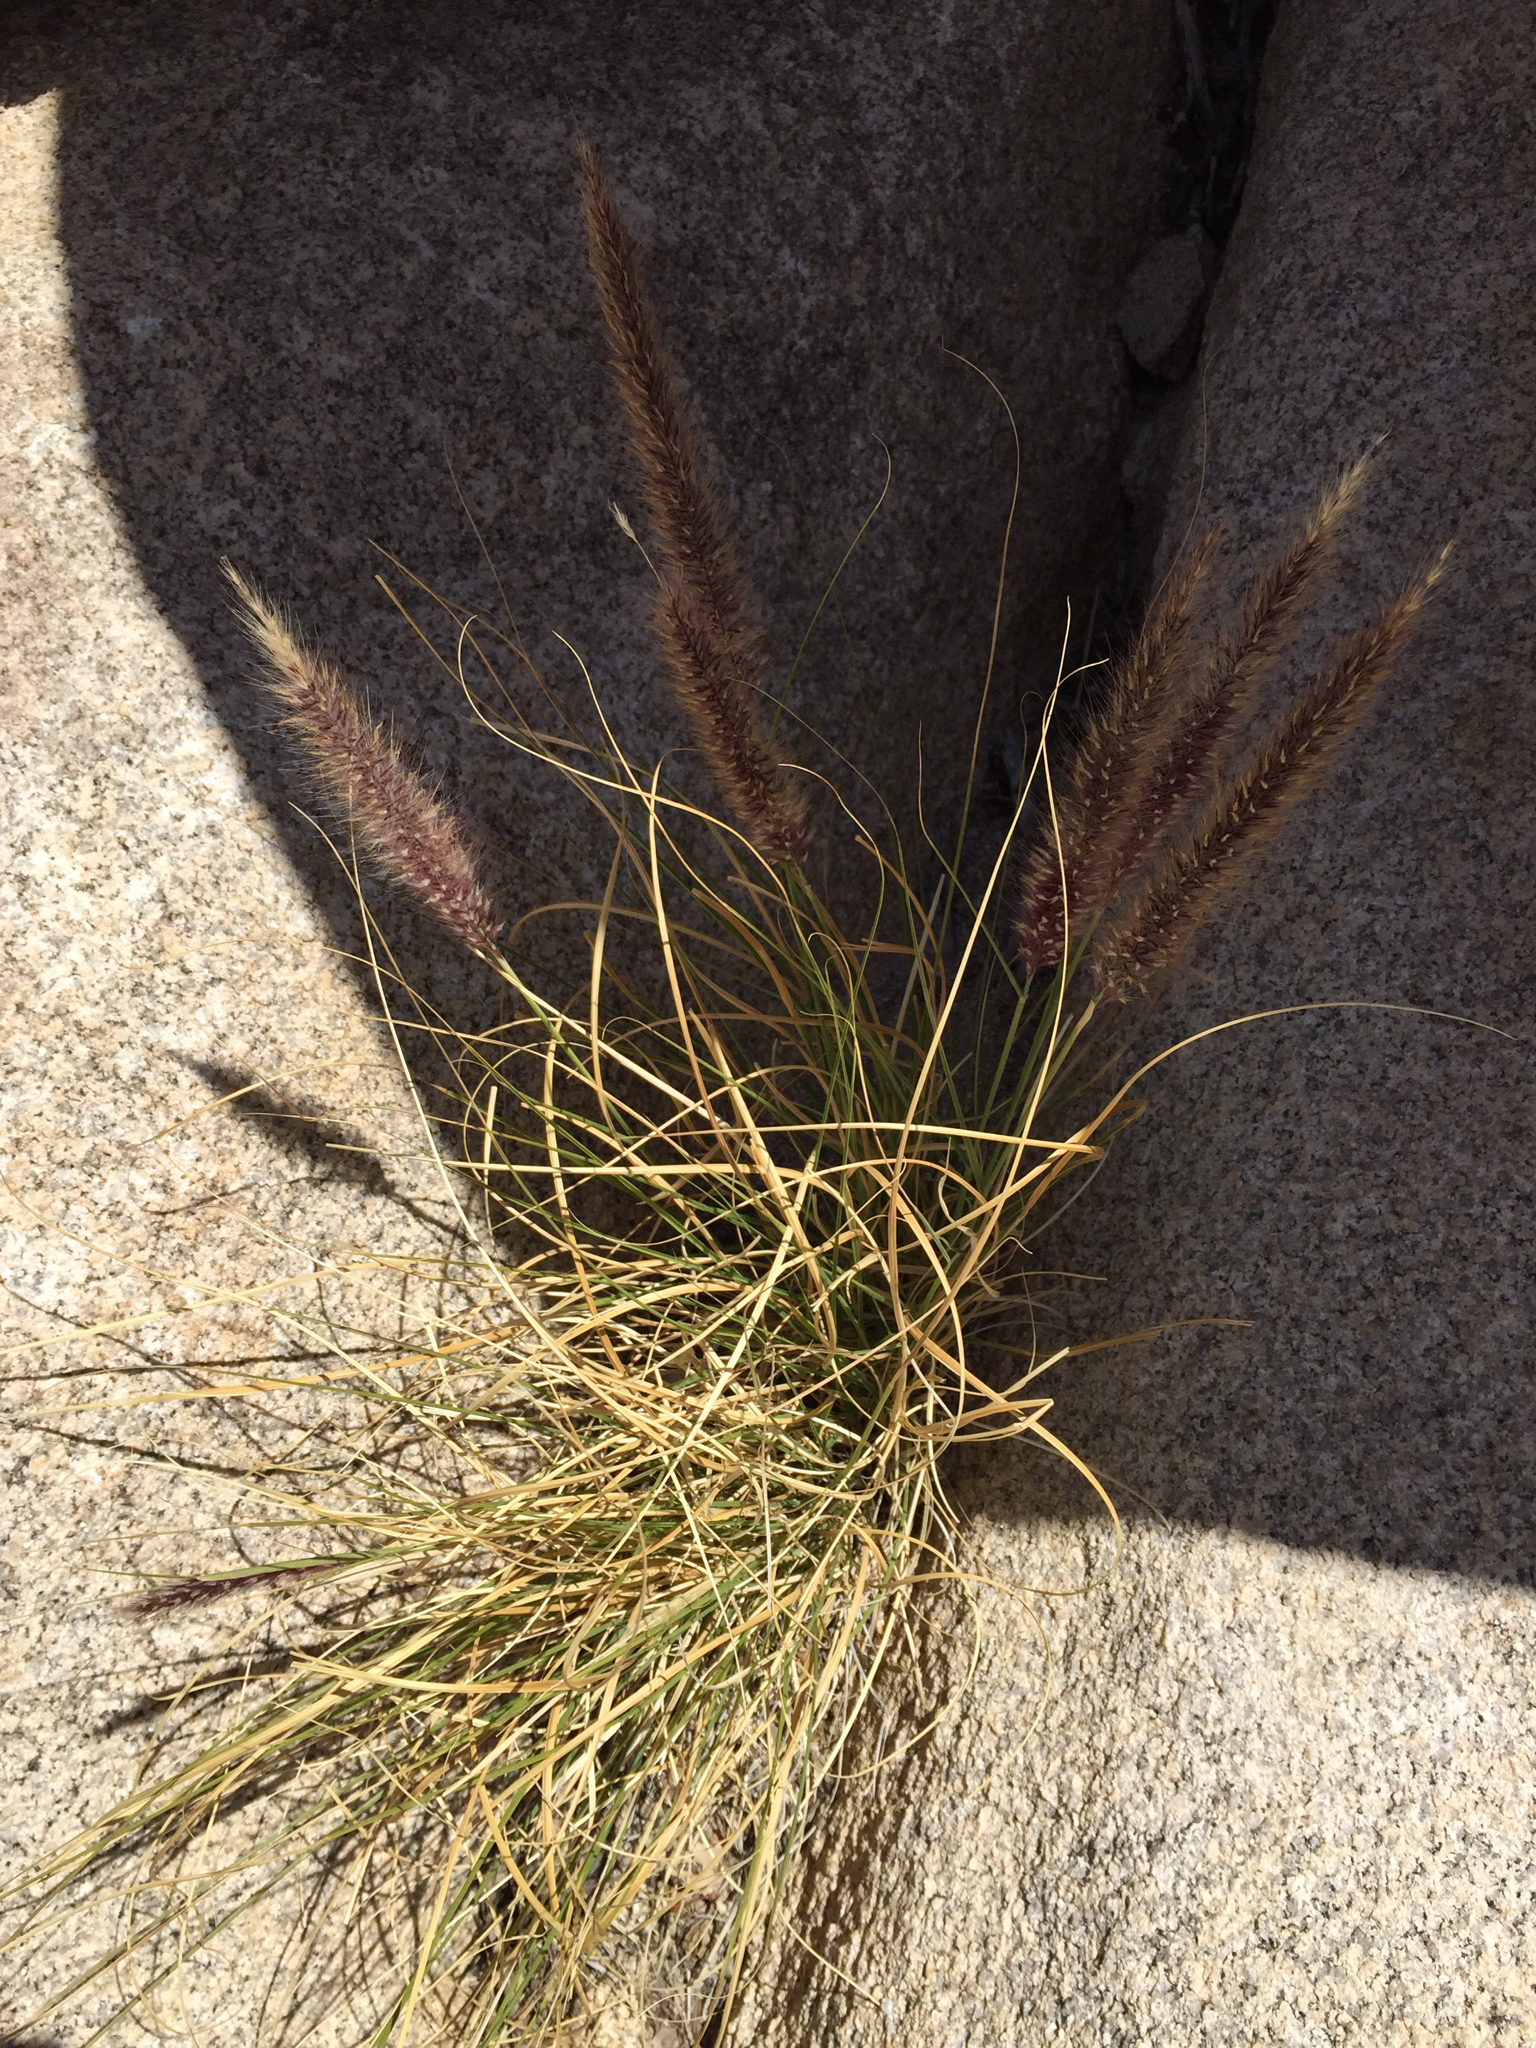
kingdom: Plantae
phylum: Tracheophyta
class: Liliopsida
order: Poales
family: Poaceae
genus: Cenchrus
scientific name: Cenchrus setaceus
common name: Crimson fountaingrass
